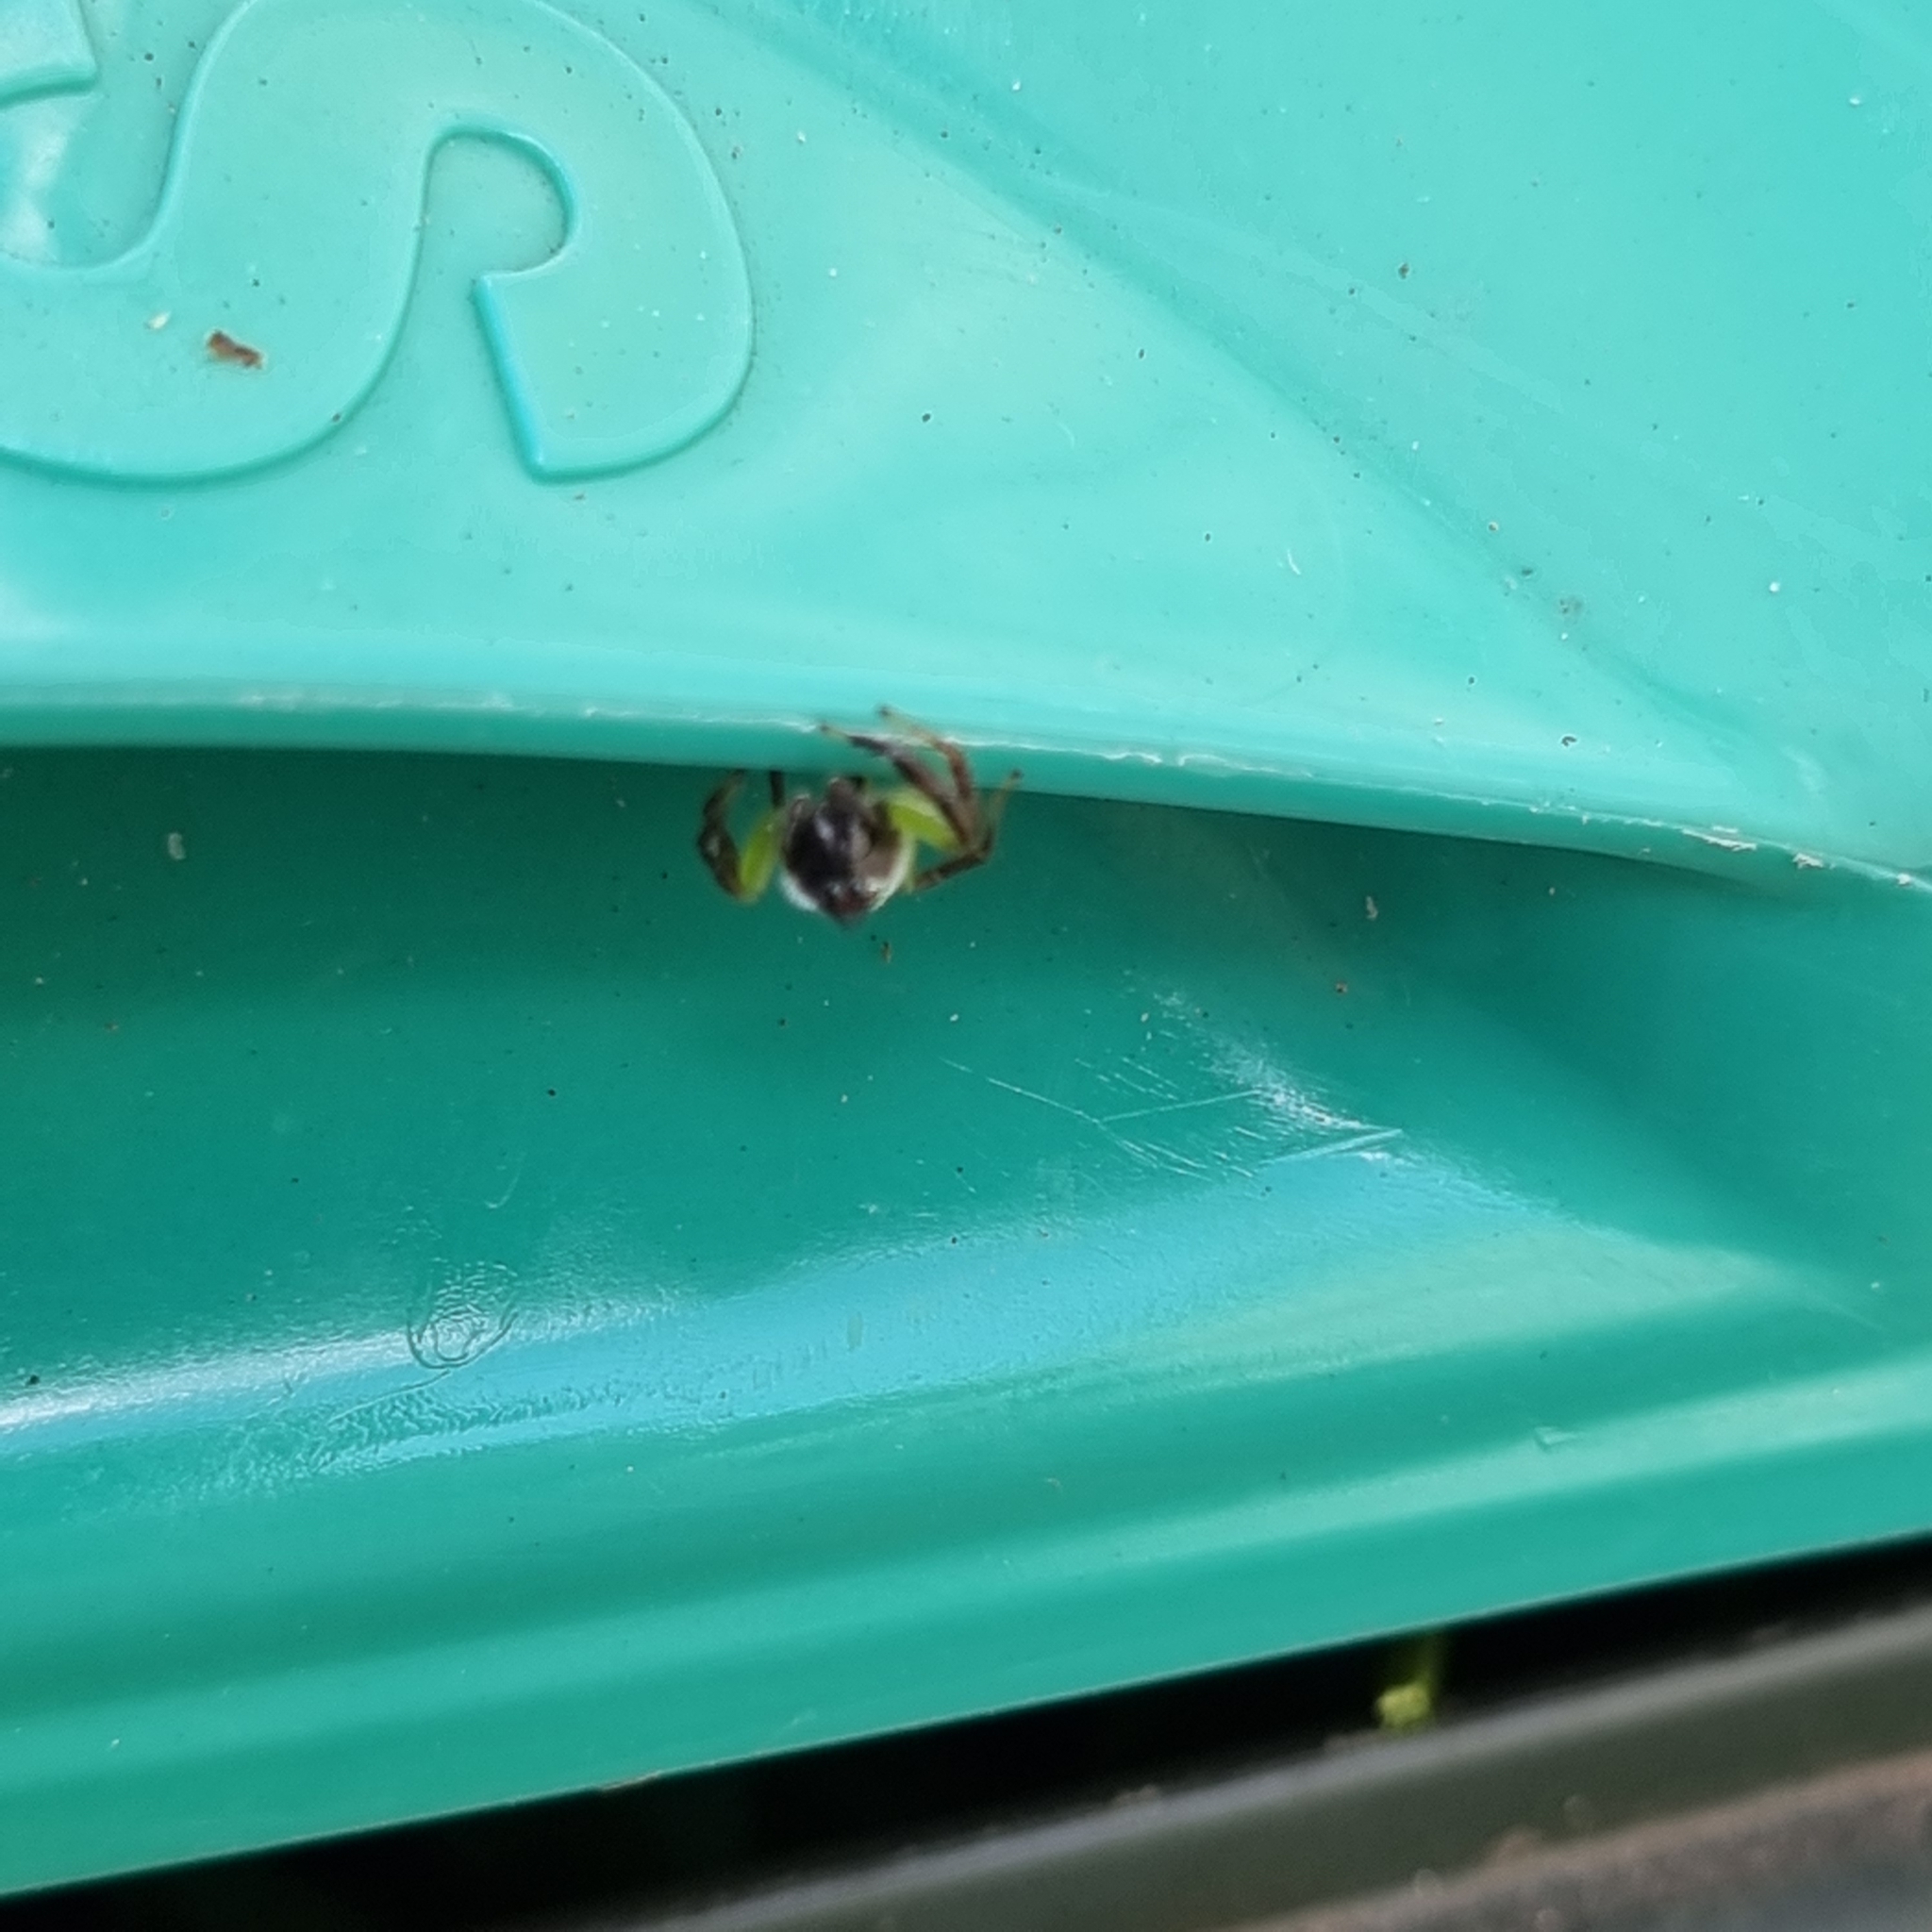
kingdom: Animalia
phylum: Arthropoda
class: Arachnida
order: Araneae
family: Salticidae
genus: Mopsus
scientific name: Mopsus mormon
